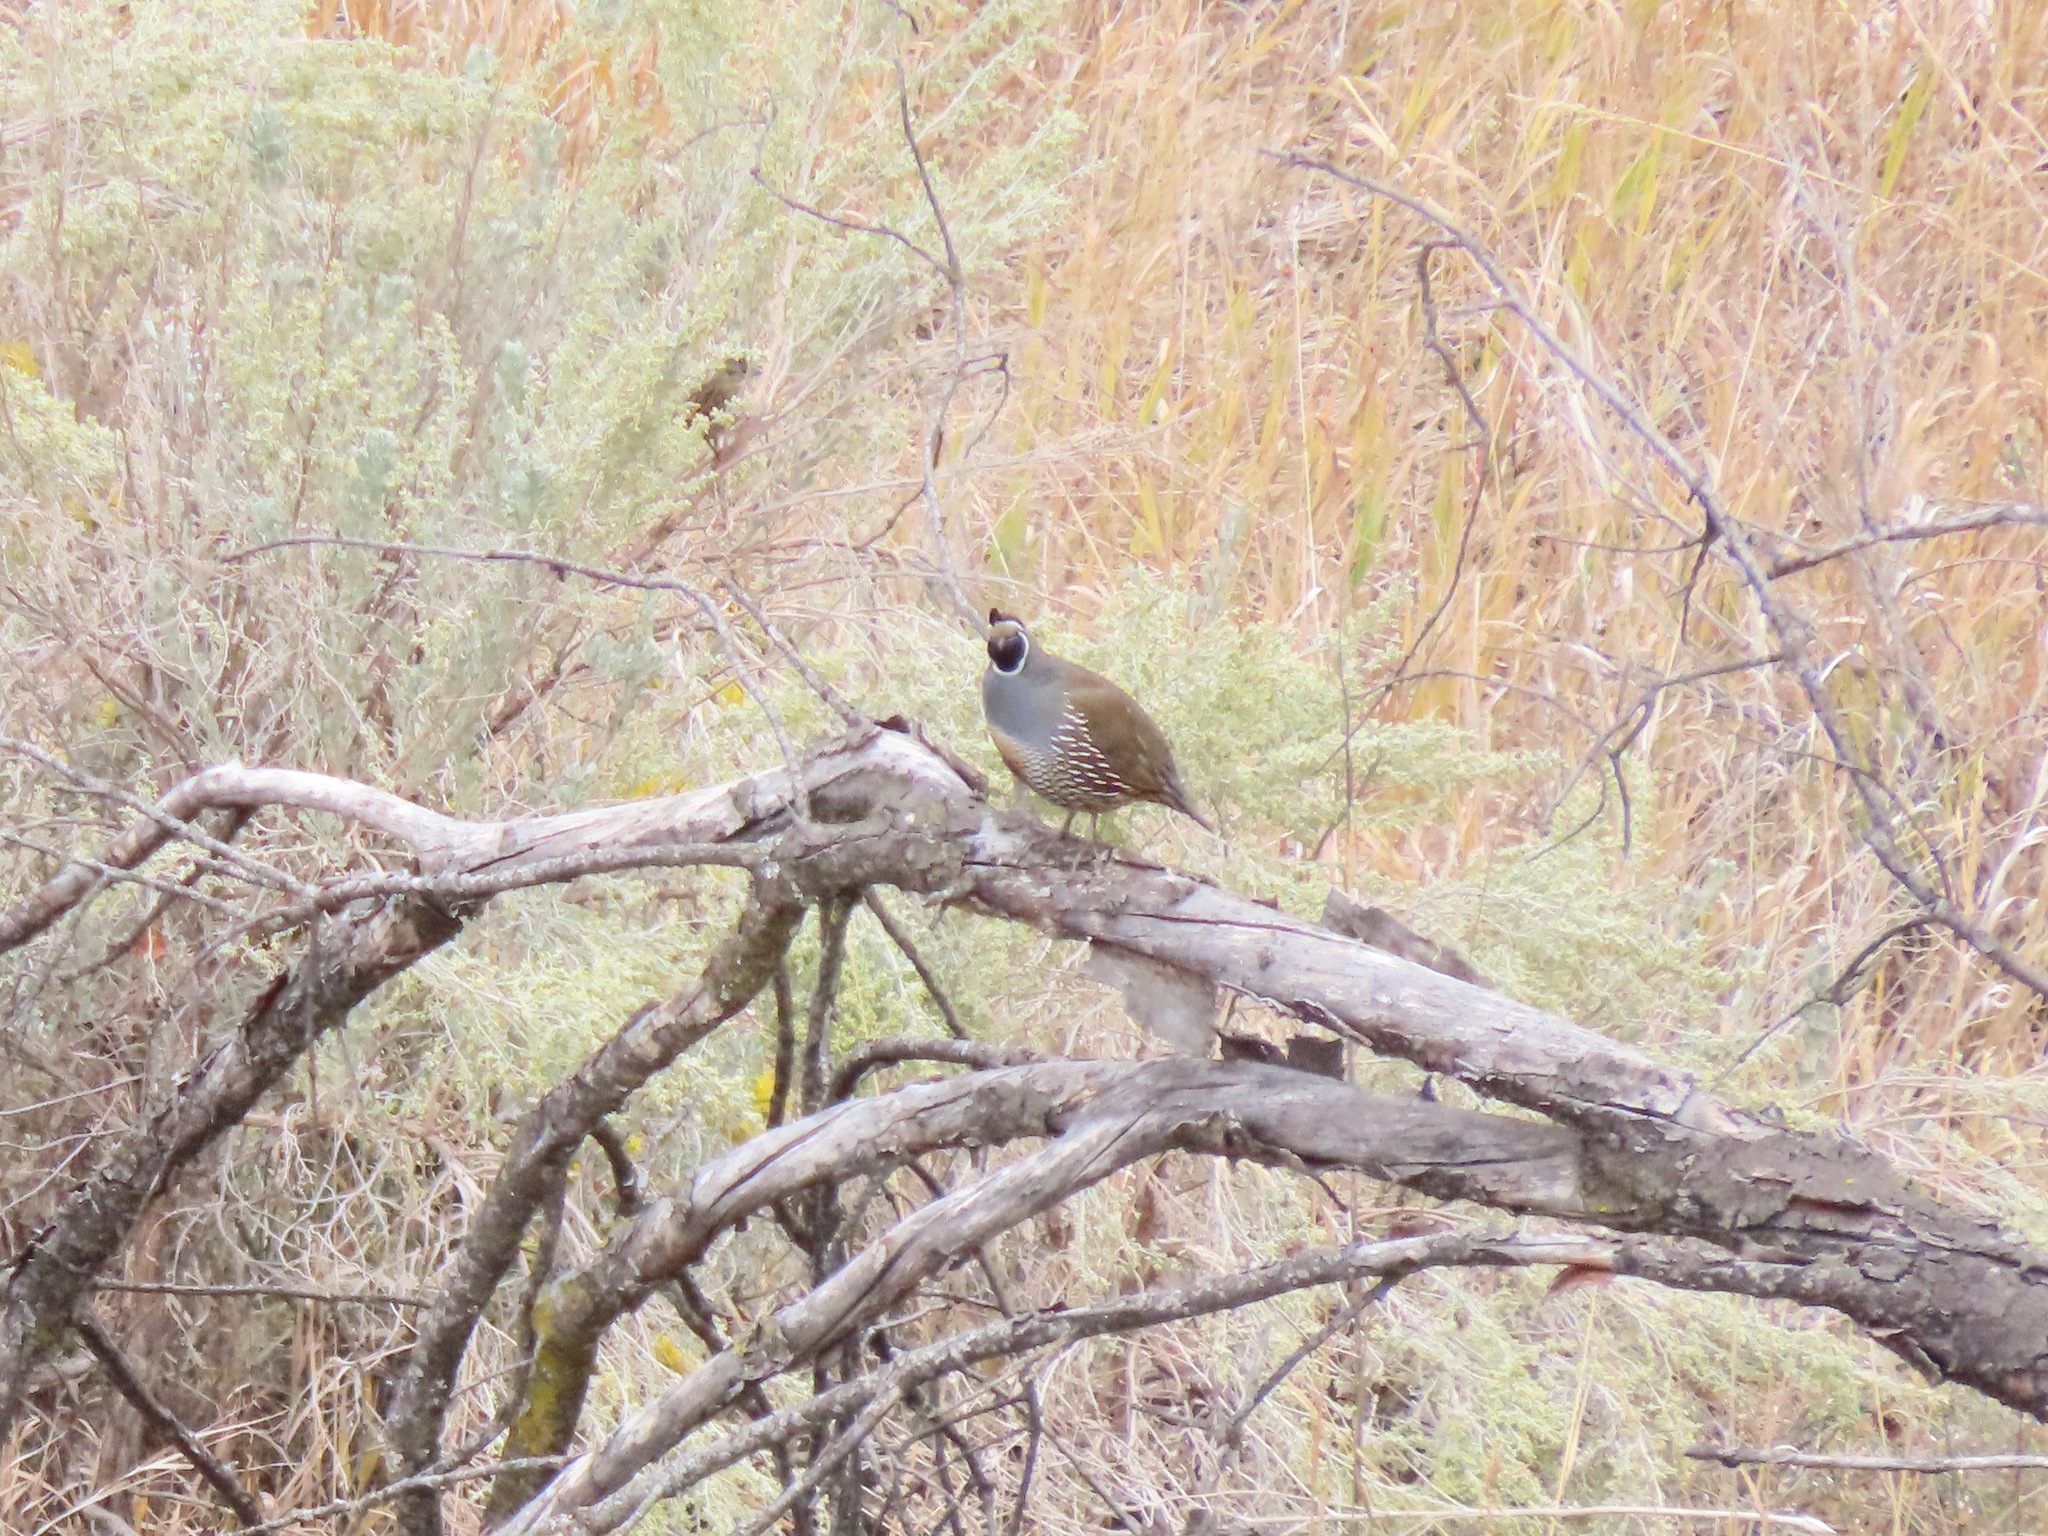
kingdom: Animalia
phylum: Chordata
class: Aves
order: Galliformes
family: Odontophoridae
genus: Callipepla
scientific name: Callipepla californica
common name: California quail
